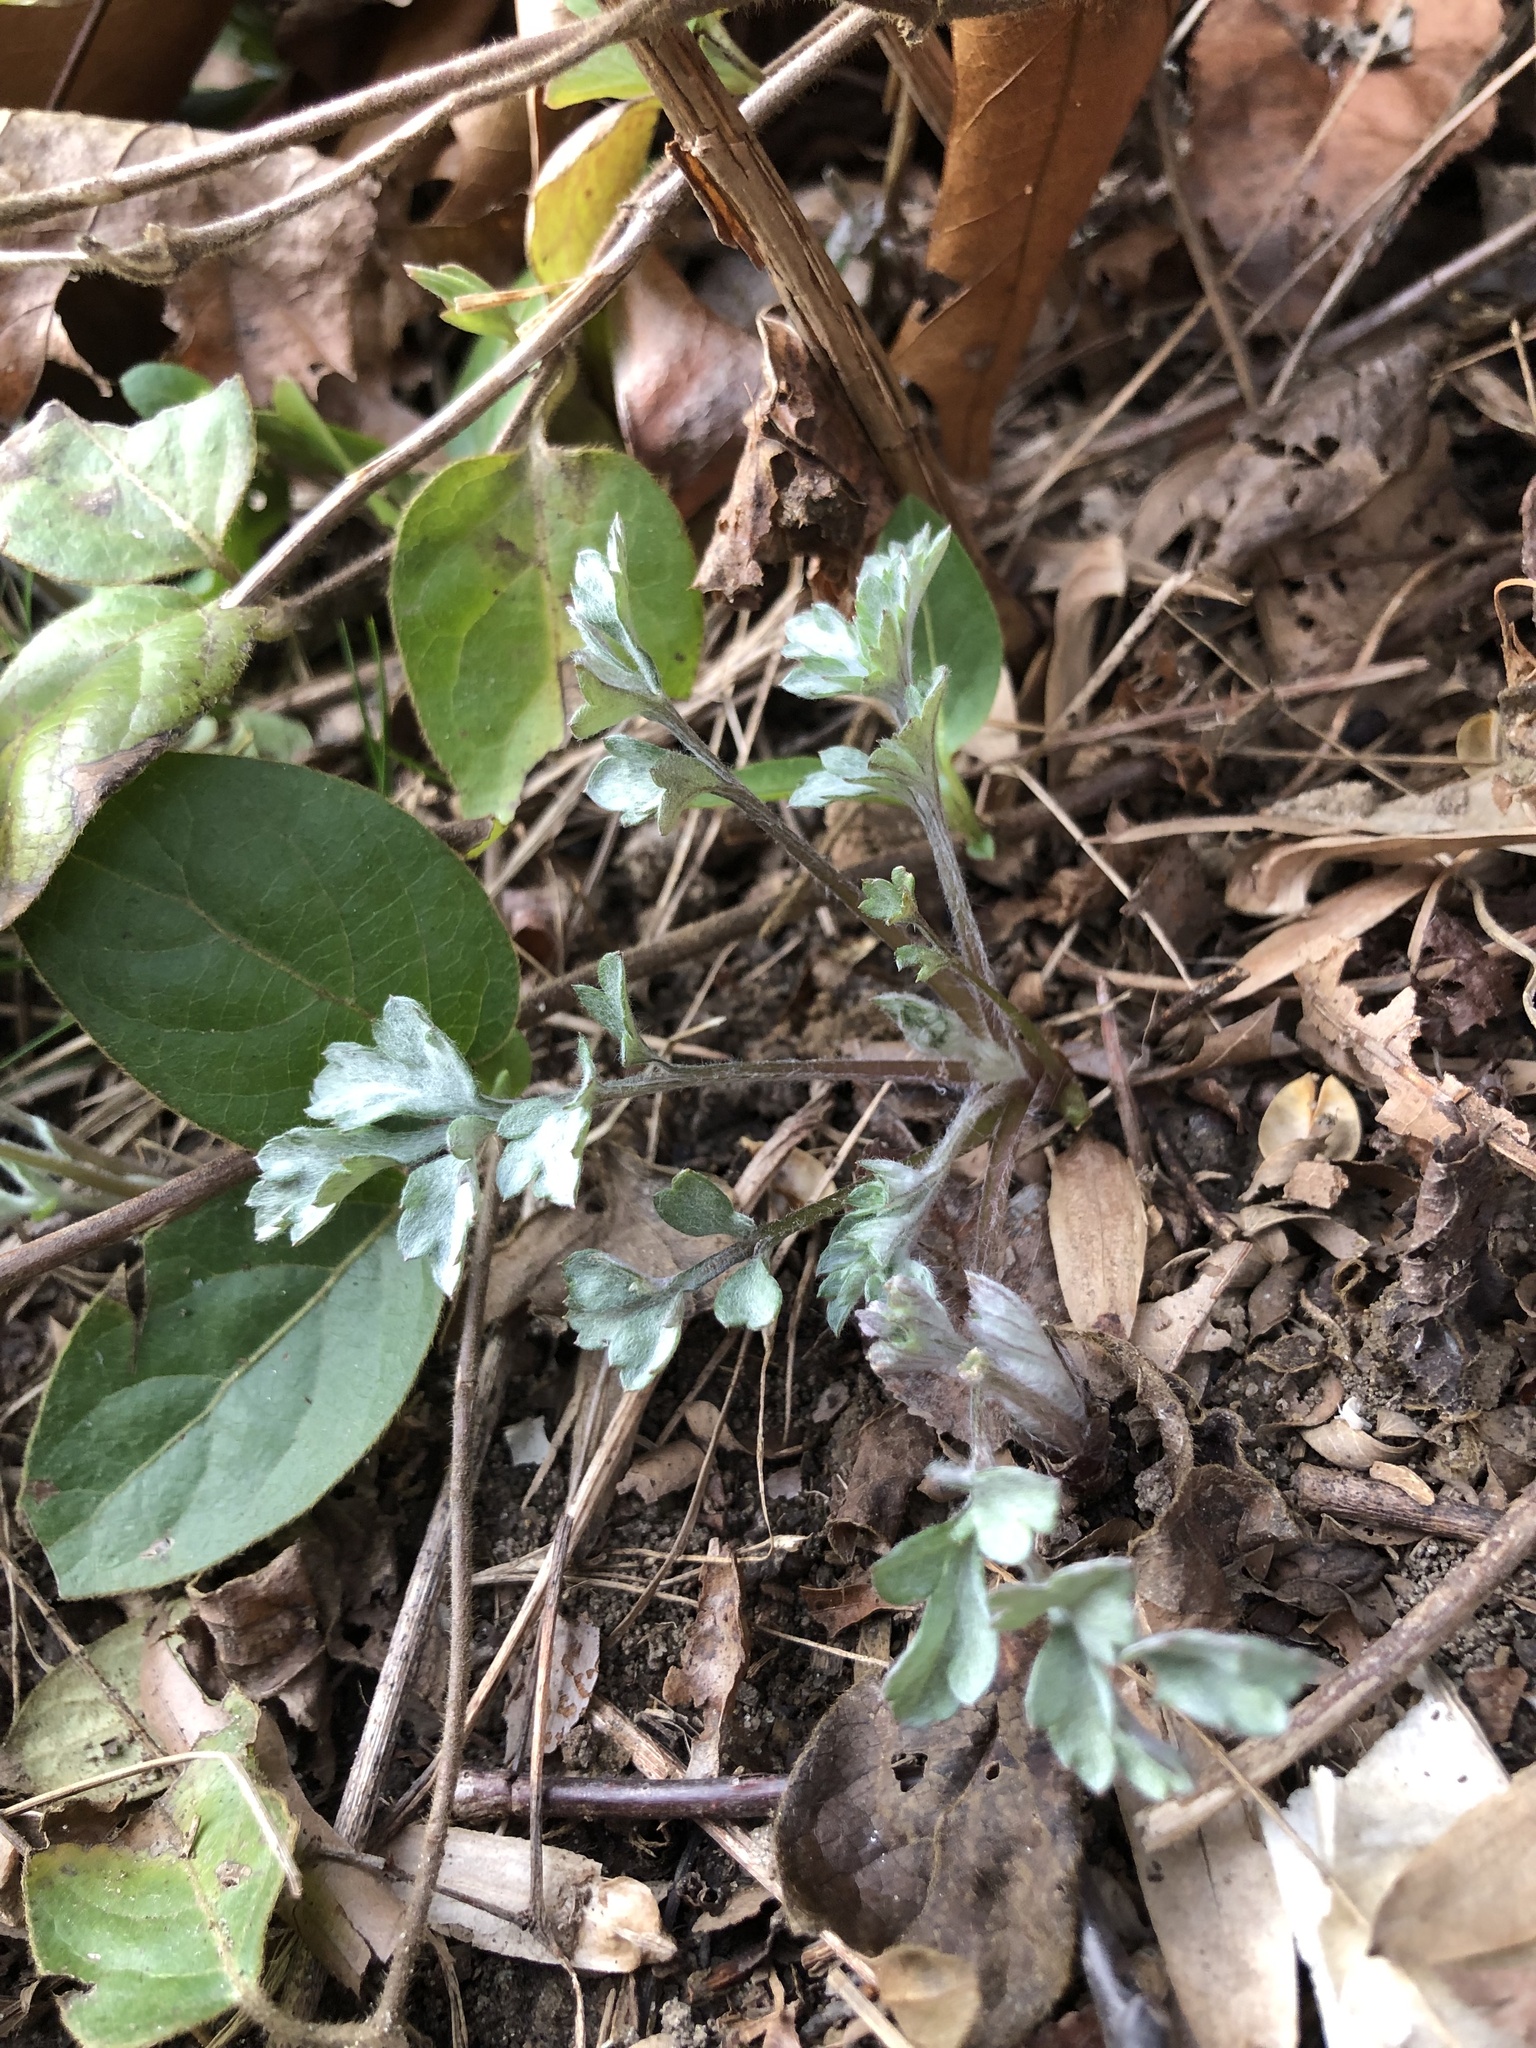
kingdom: Plantae
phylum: Tracheophyta
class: Magnoliopsida
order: Asterales
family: Asteraceae
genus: Artemisia
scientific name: Artemisia vulgaris
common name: Mugwort
